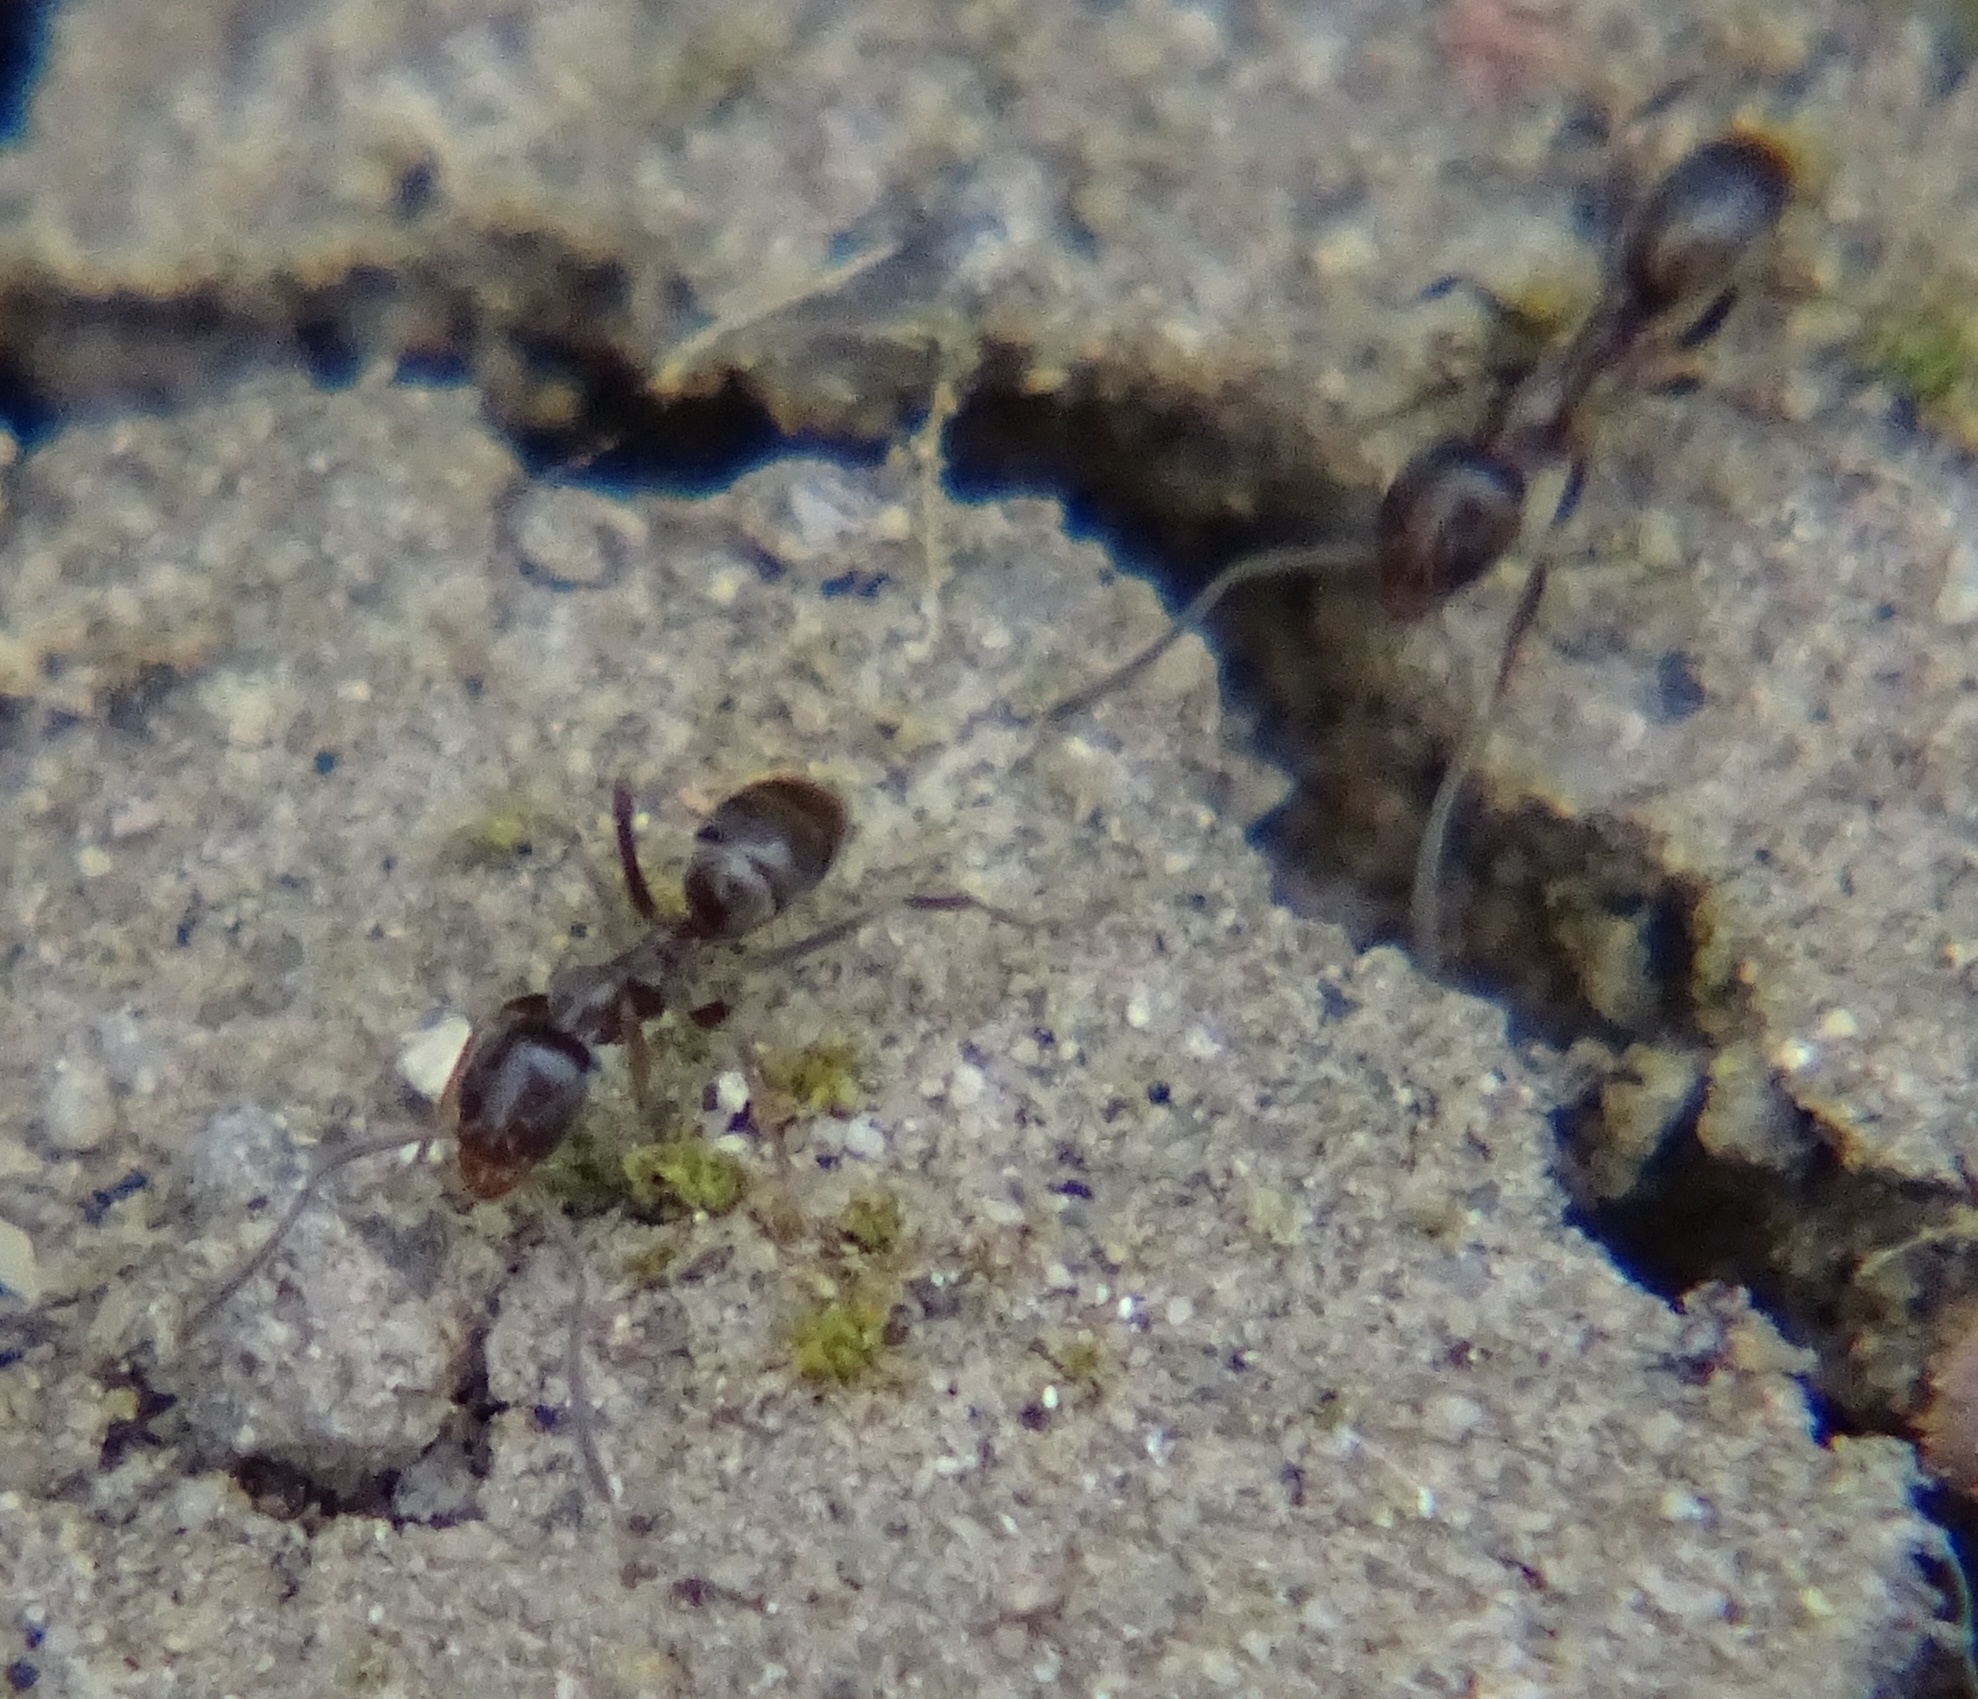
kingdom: Animalia
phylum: Arthropoda
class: Insecta
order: Hymenoptera
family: Formicidae
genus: Linepithema
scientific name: Linepithema humile
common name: Argentine ant
